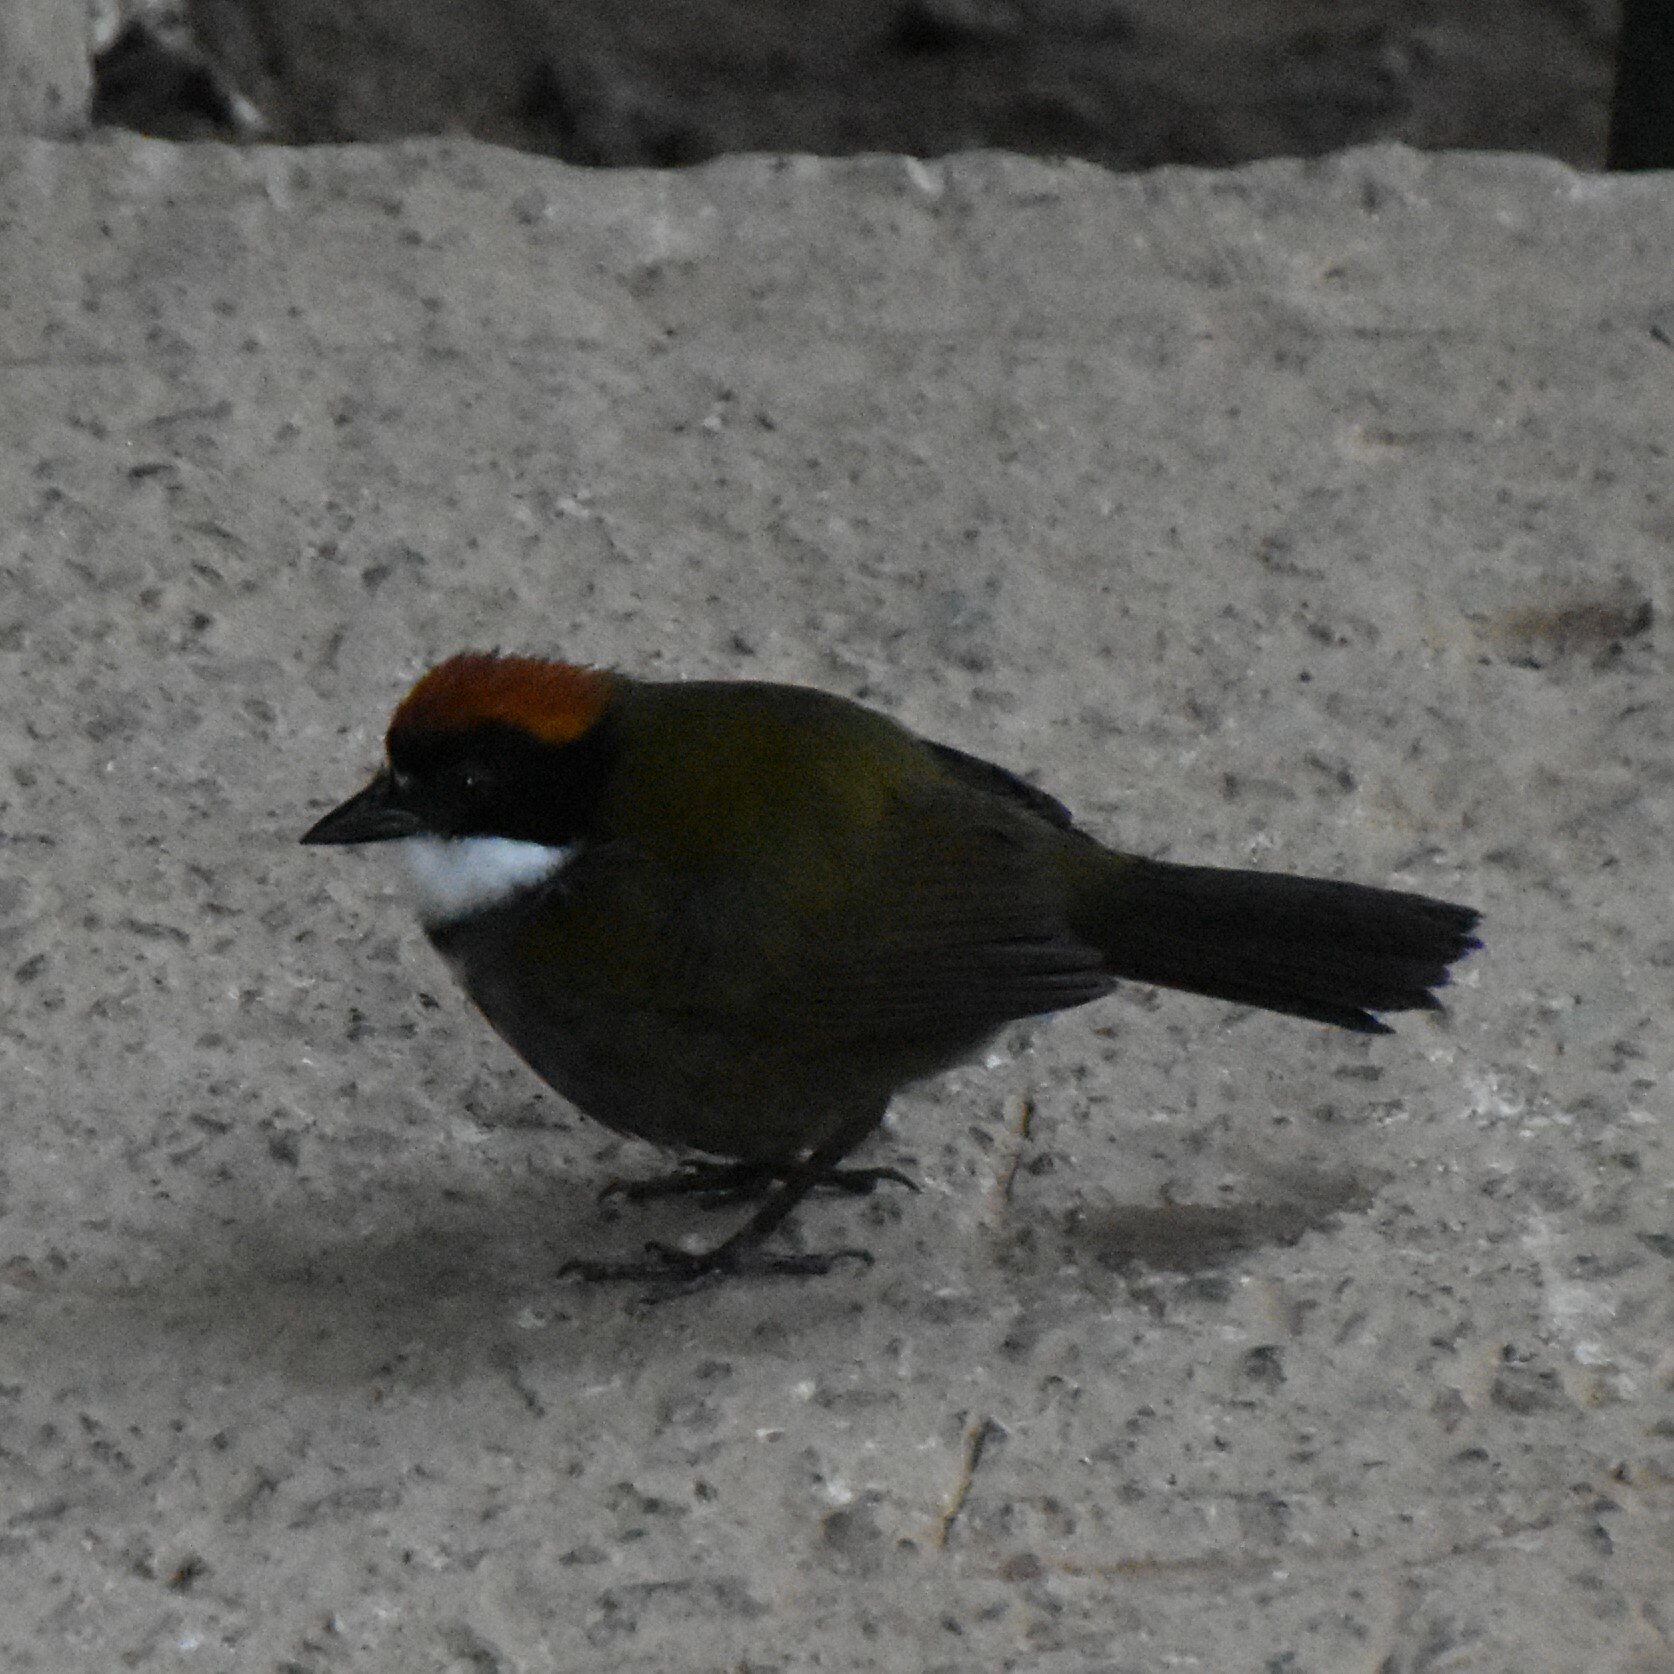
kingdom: Animalia
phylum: Chordata
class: Aves
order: Passeriformes
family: Passerellidae
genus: Arremon
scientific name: Arremon brunneinucha
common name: Chestnut-capped brushfinch
